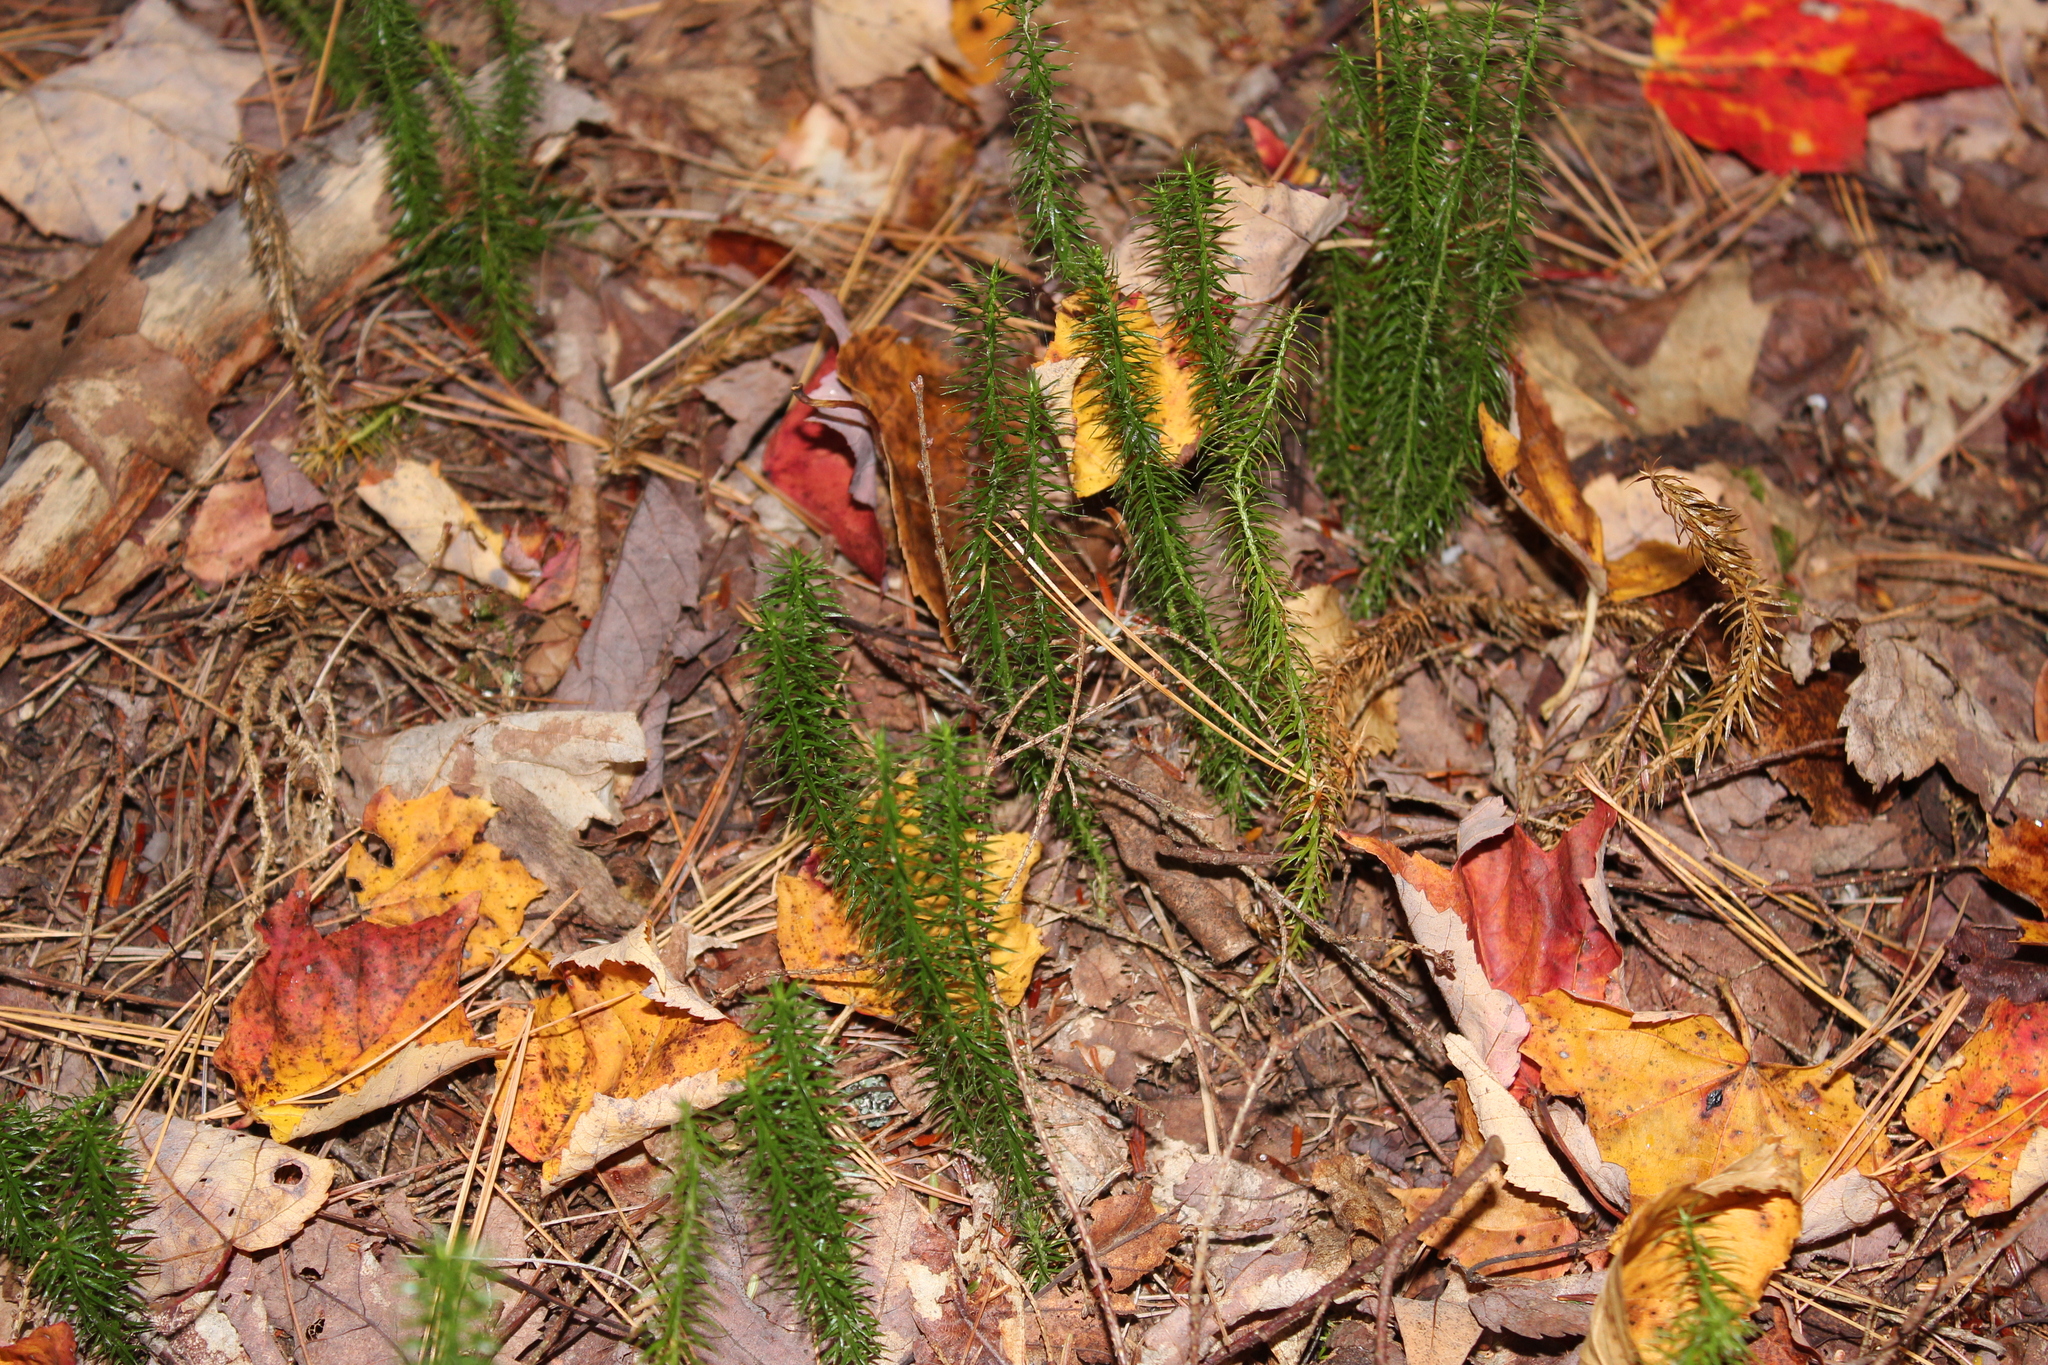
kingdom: Plantae
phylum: Tracheophyta
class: Lycopodiopsida
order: Lycopodiales
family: Lycopodiaceae
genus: Spinulum
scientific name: Spinulum annotinum
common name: Interrupted club-moss
